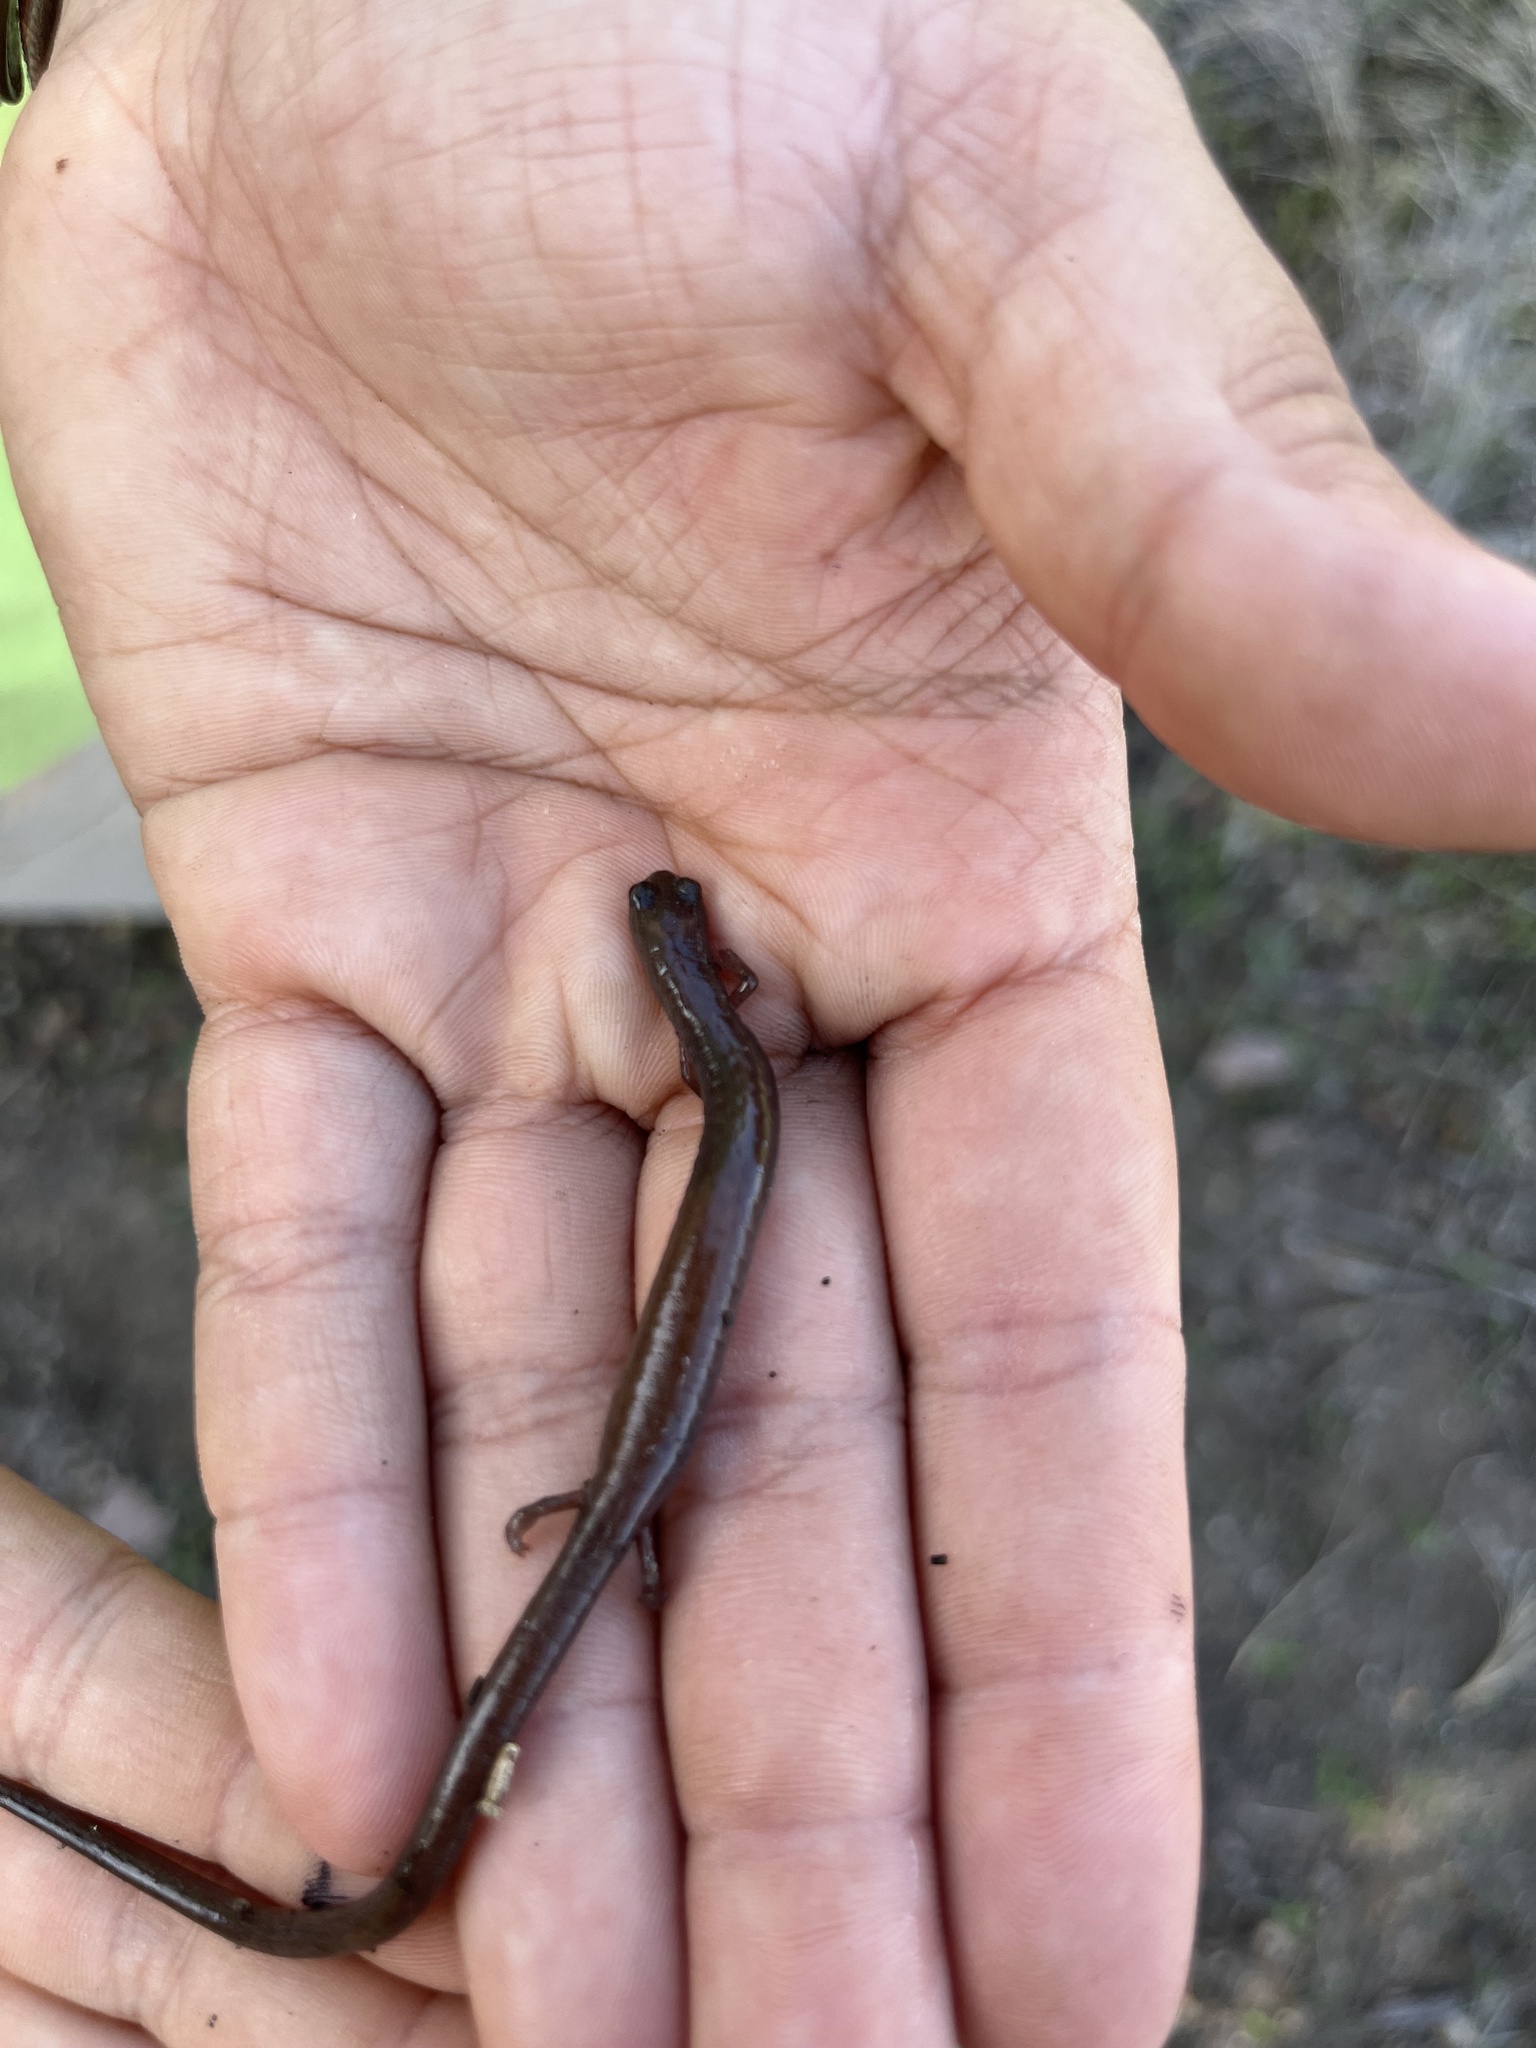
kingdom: Animalia
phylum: Chordata
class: Amphibia
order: Caudata
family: Plethodontidae
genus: Batrachoseps
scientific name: Batrachoseps major
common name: Garden slender salamander
